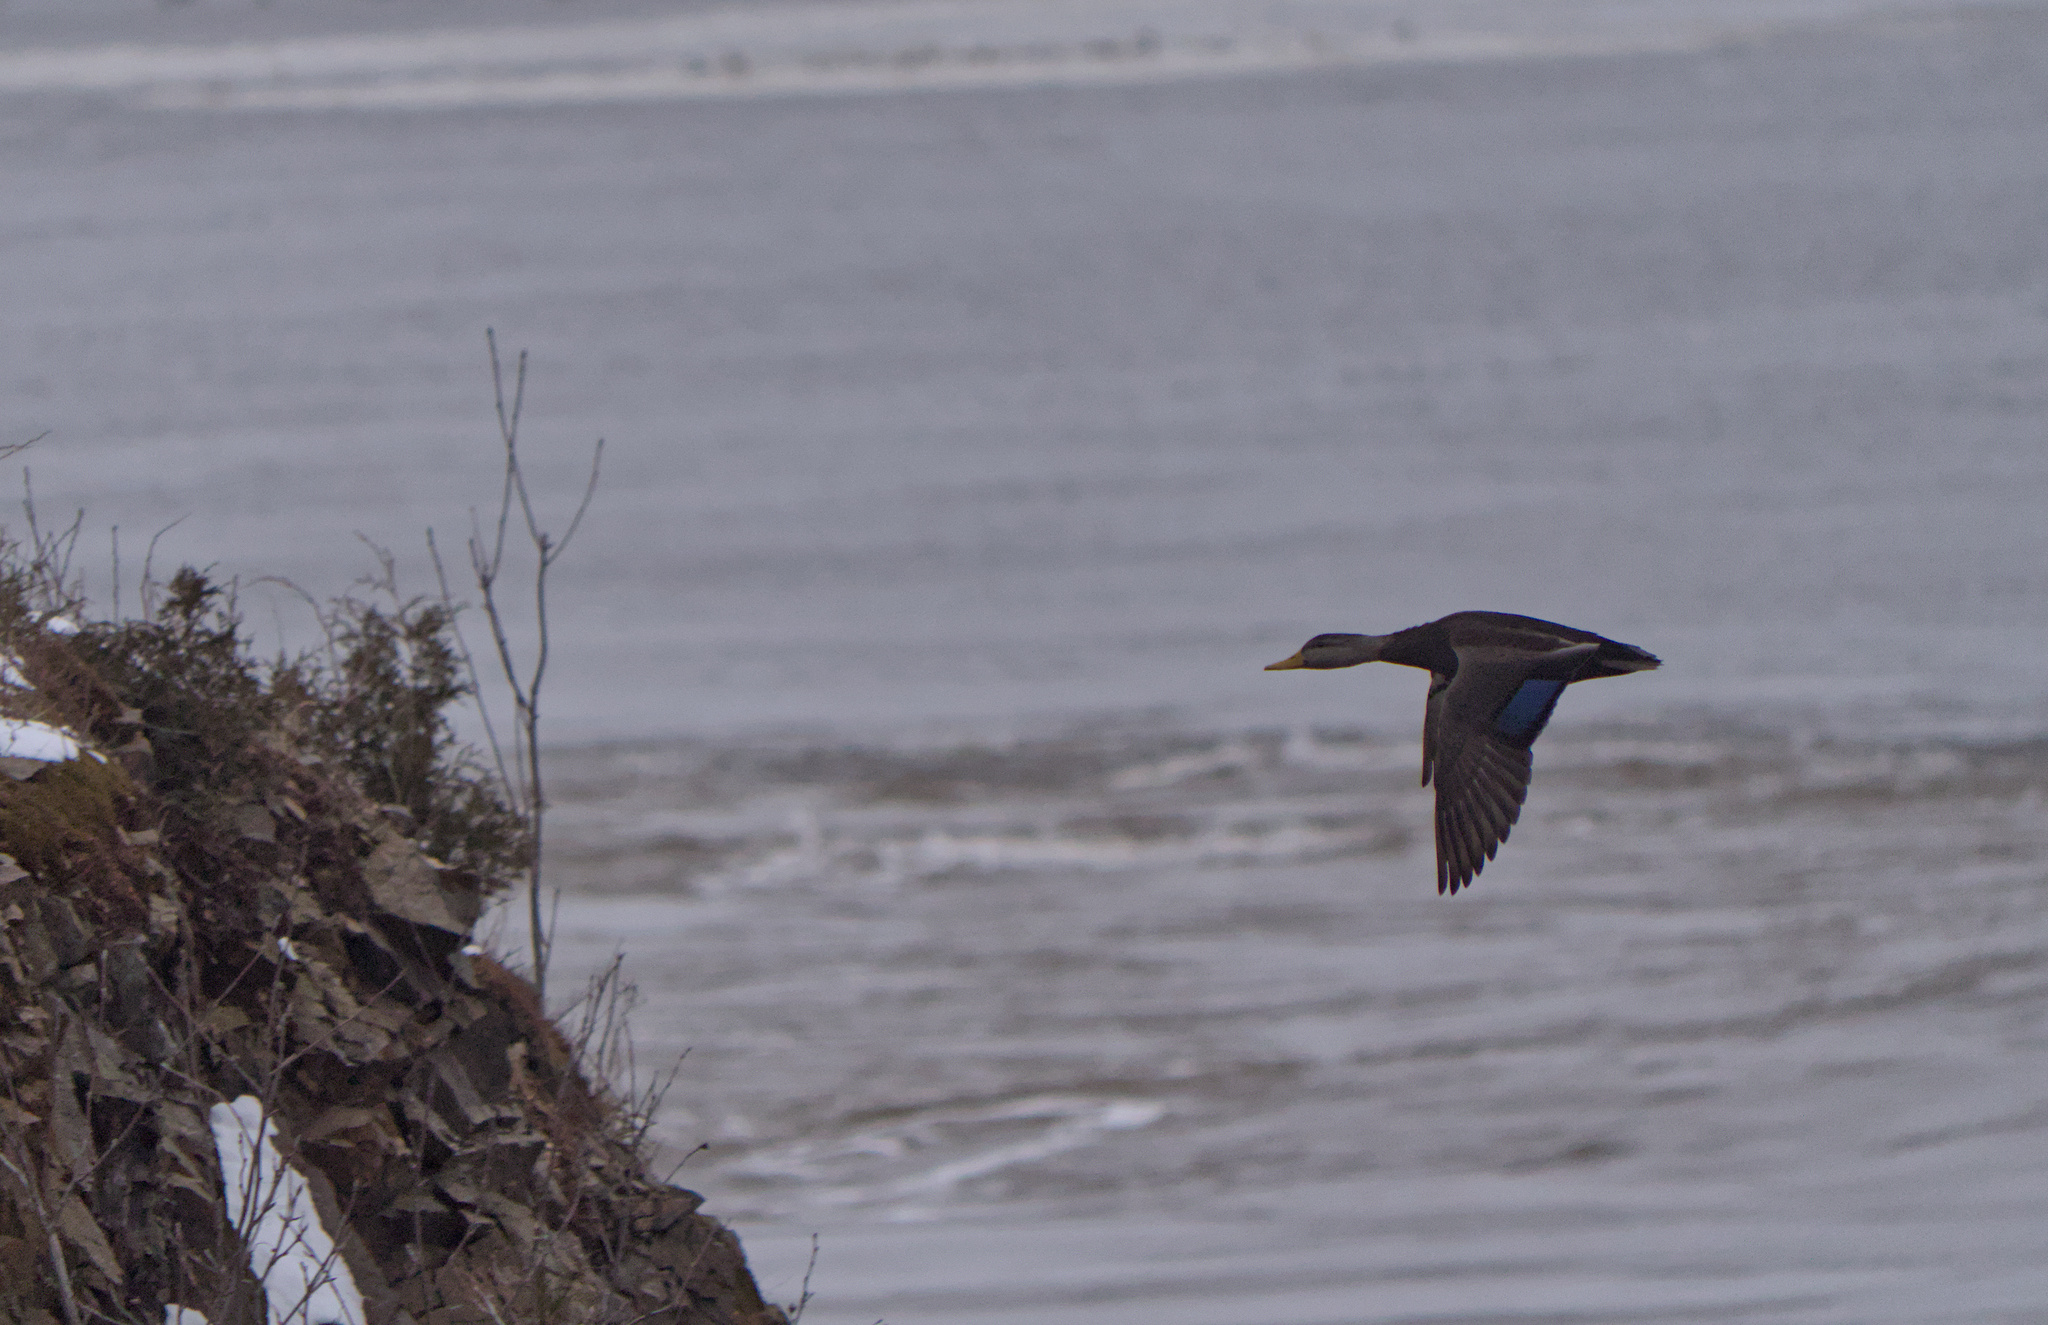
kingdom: Animalia
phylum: Chordata
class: Aves
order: Anseriformes
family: Anatidae
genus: Anas
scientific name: Anas rubripes
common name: American black duck
